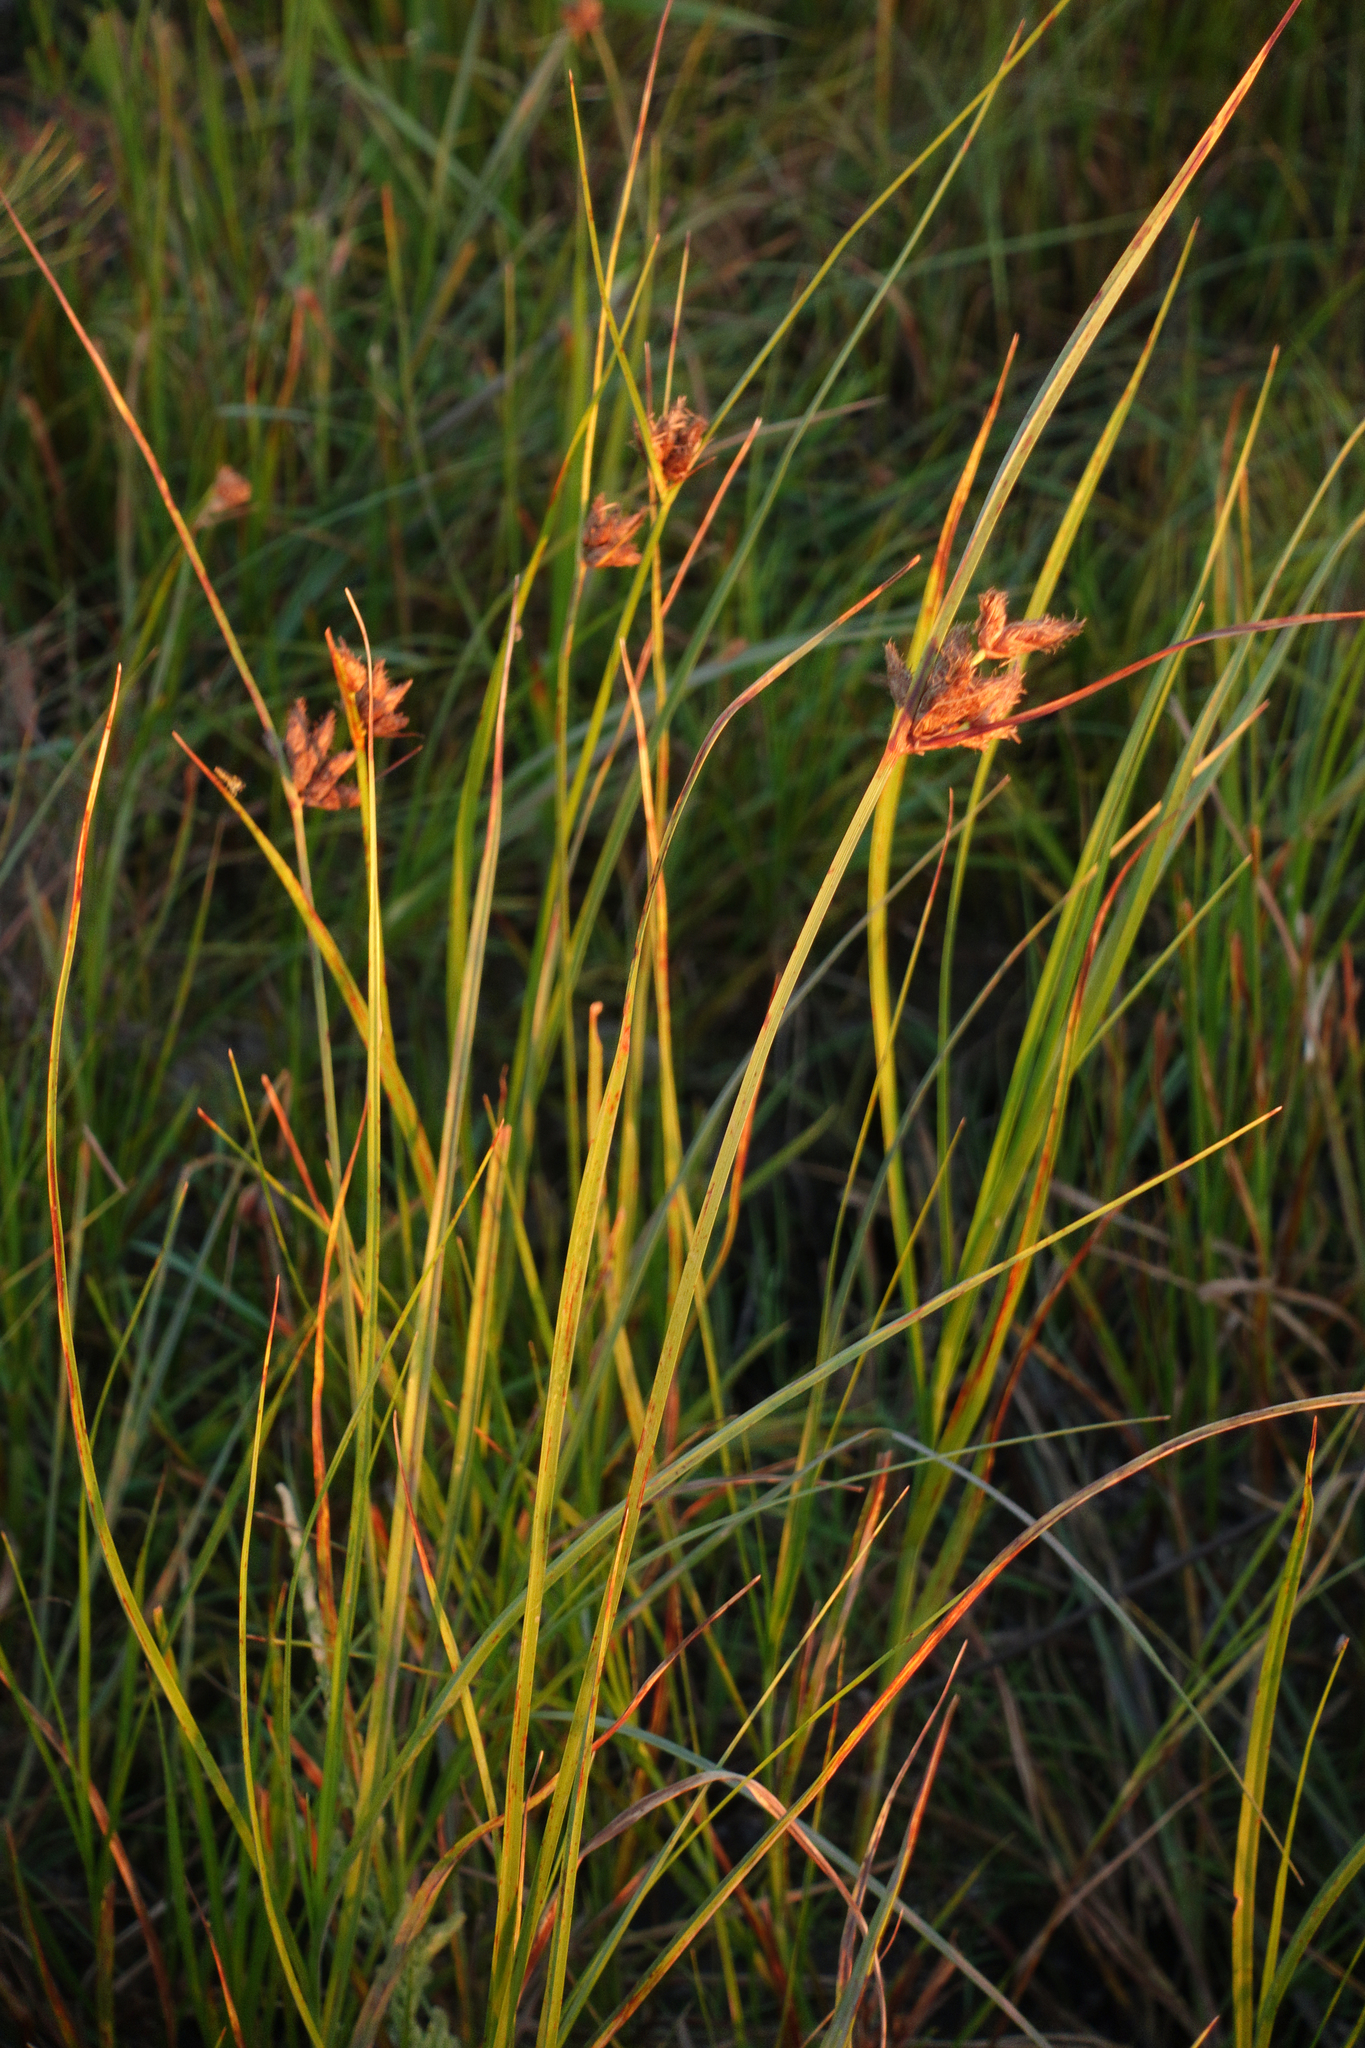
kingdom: Plantae
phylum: Tracheophyta
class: Liliopsida
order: Poales
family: Cyperaceae
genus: Bolboschoenus
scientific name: Bolboschoenus maritimus
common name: Sea club-rush
